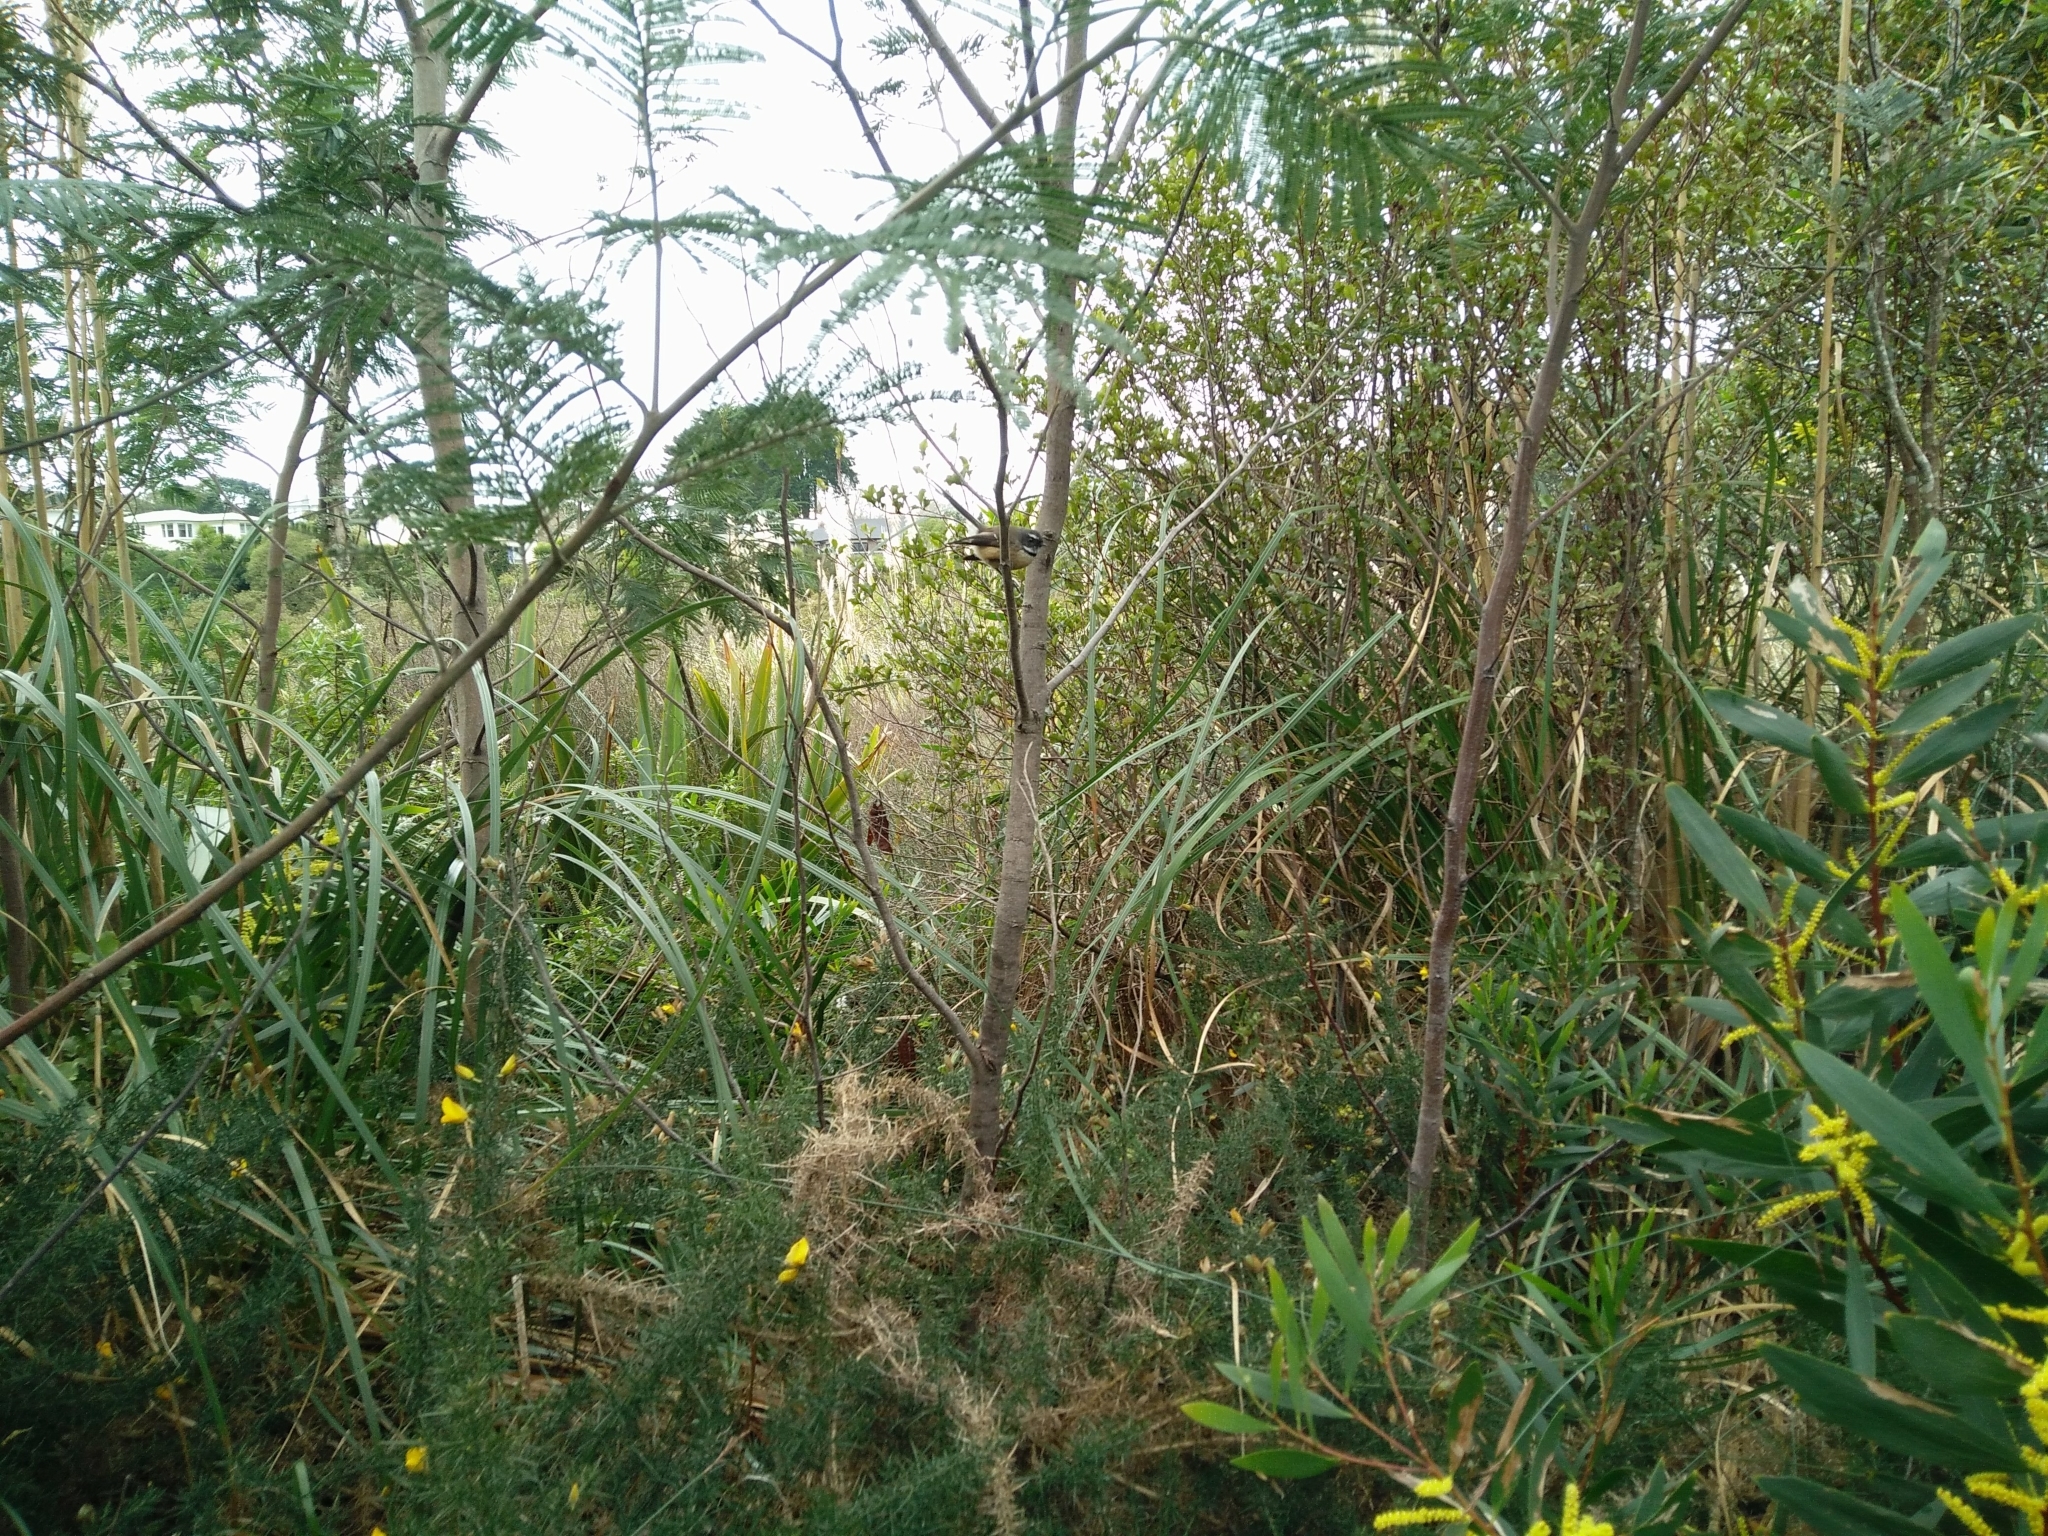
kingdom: Animalia
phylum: Chordata
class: Aves
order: Passeriformes
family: Rhipiduridae
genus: Rhipidura
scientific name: Rhipidura fuliginosa
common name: New zealand fantail
